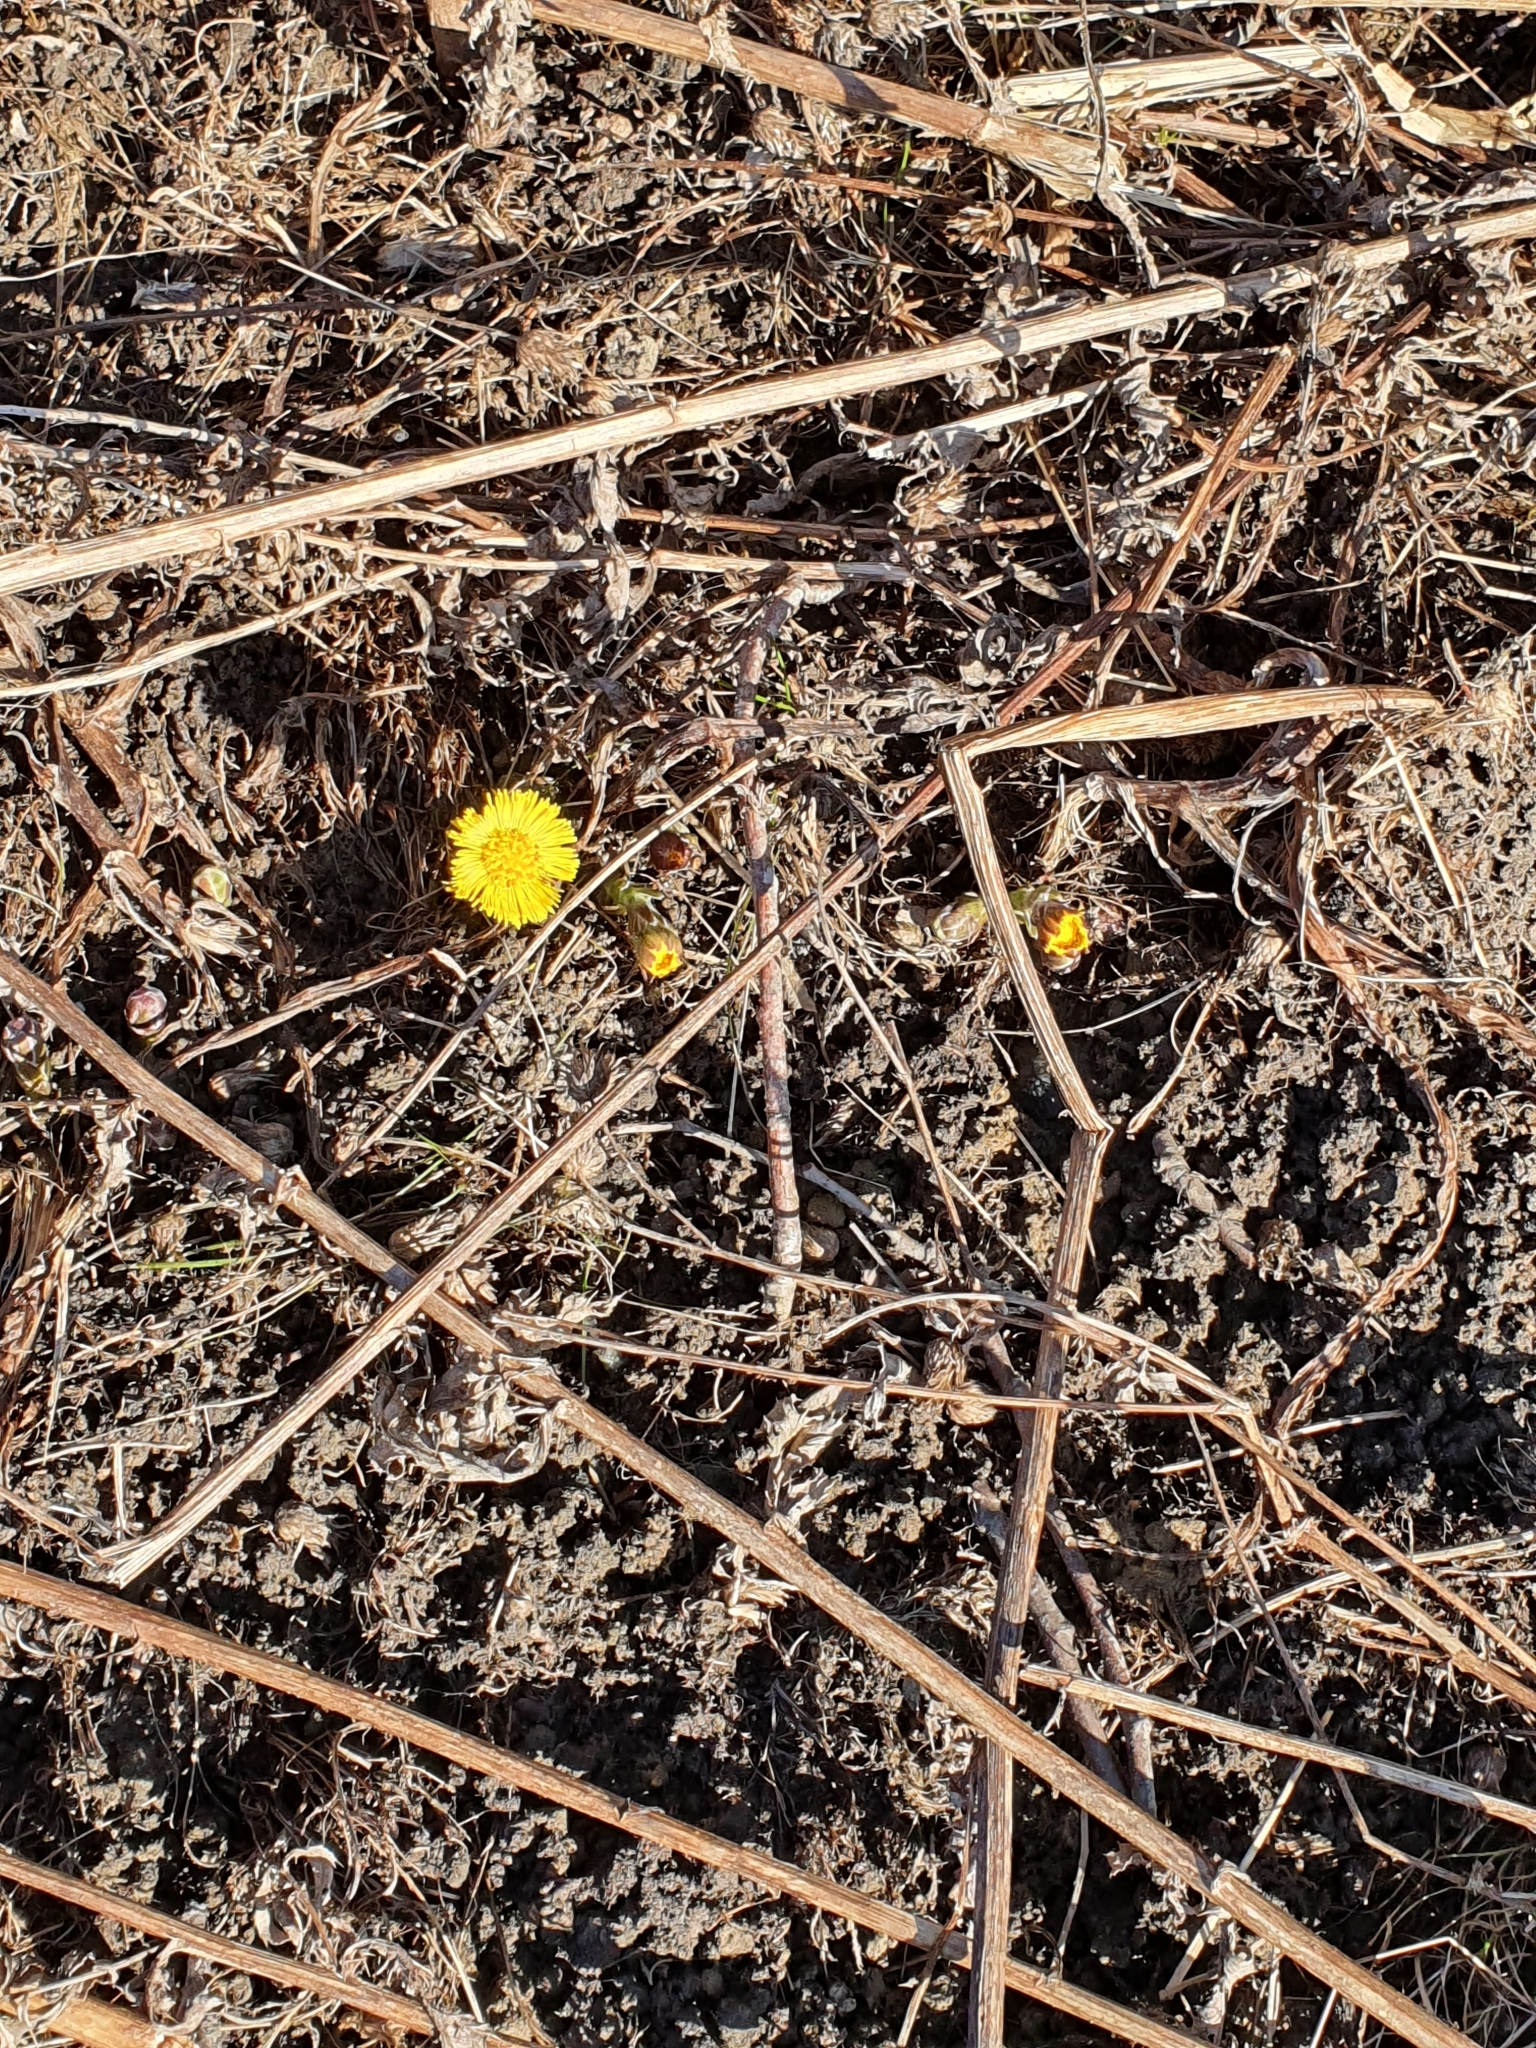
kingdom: Plantae
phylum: Tracheophyta
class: Magnoliopsida
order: Asterales
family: Asteraceae
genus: Tussilago
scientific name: Tussilago farfara
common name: Coltsfoot
